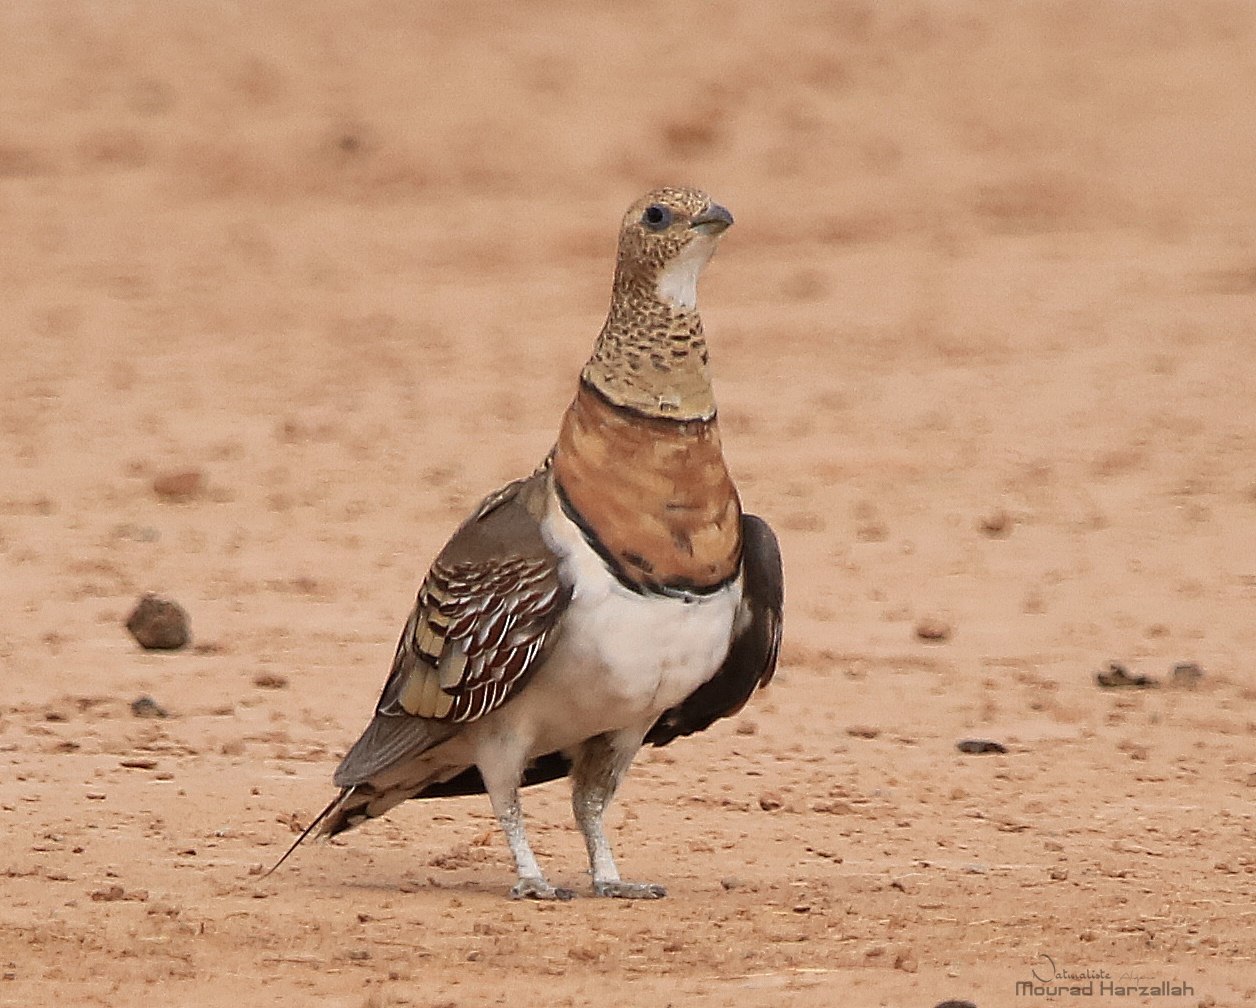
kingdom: Animalia
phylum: Chordata
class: Aves
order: Pteroclidiformes
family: Pteroclididae
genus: Pterocles
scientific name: Pterocles alchata
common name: Pin-tailed sandgrouse
